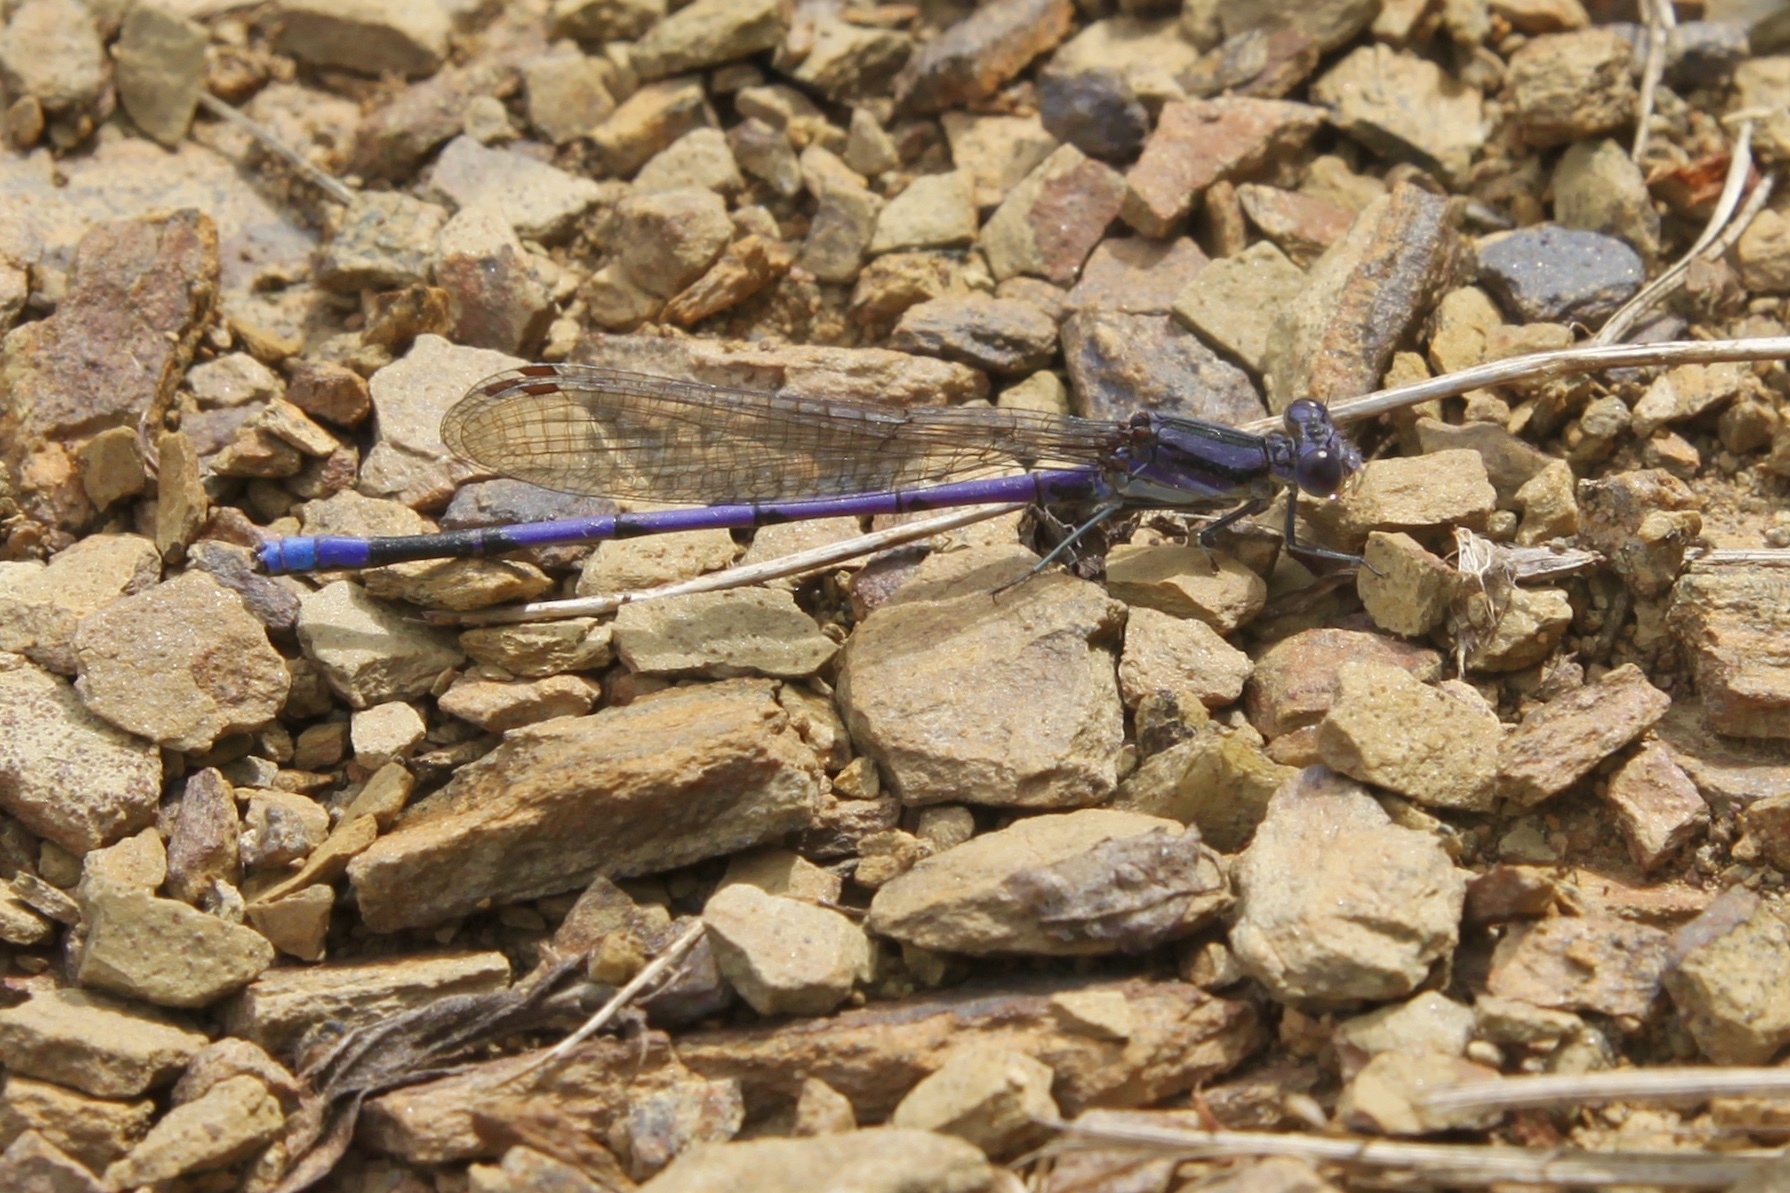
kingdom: Animalia
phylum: Arthropoda
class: Insecta
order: Odonata
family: Coenagrionidae
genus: Argia
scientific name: Argia fumipennis
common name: Variable dancer
